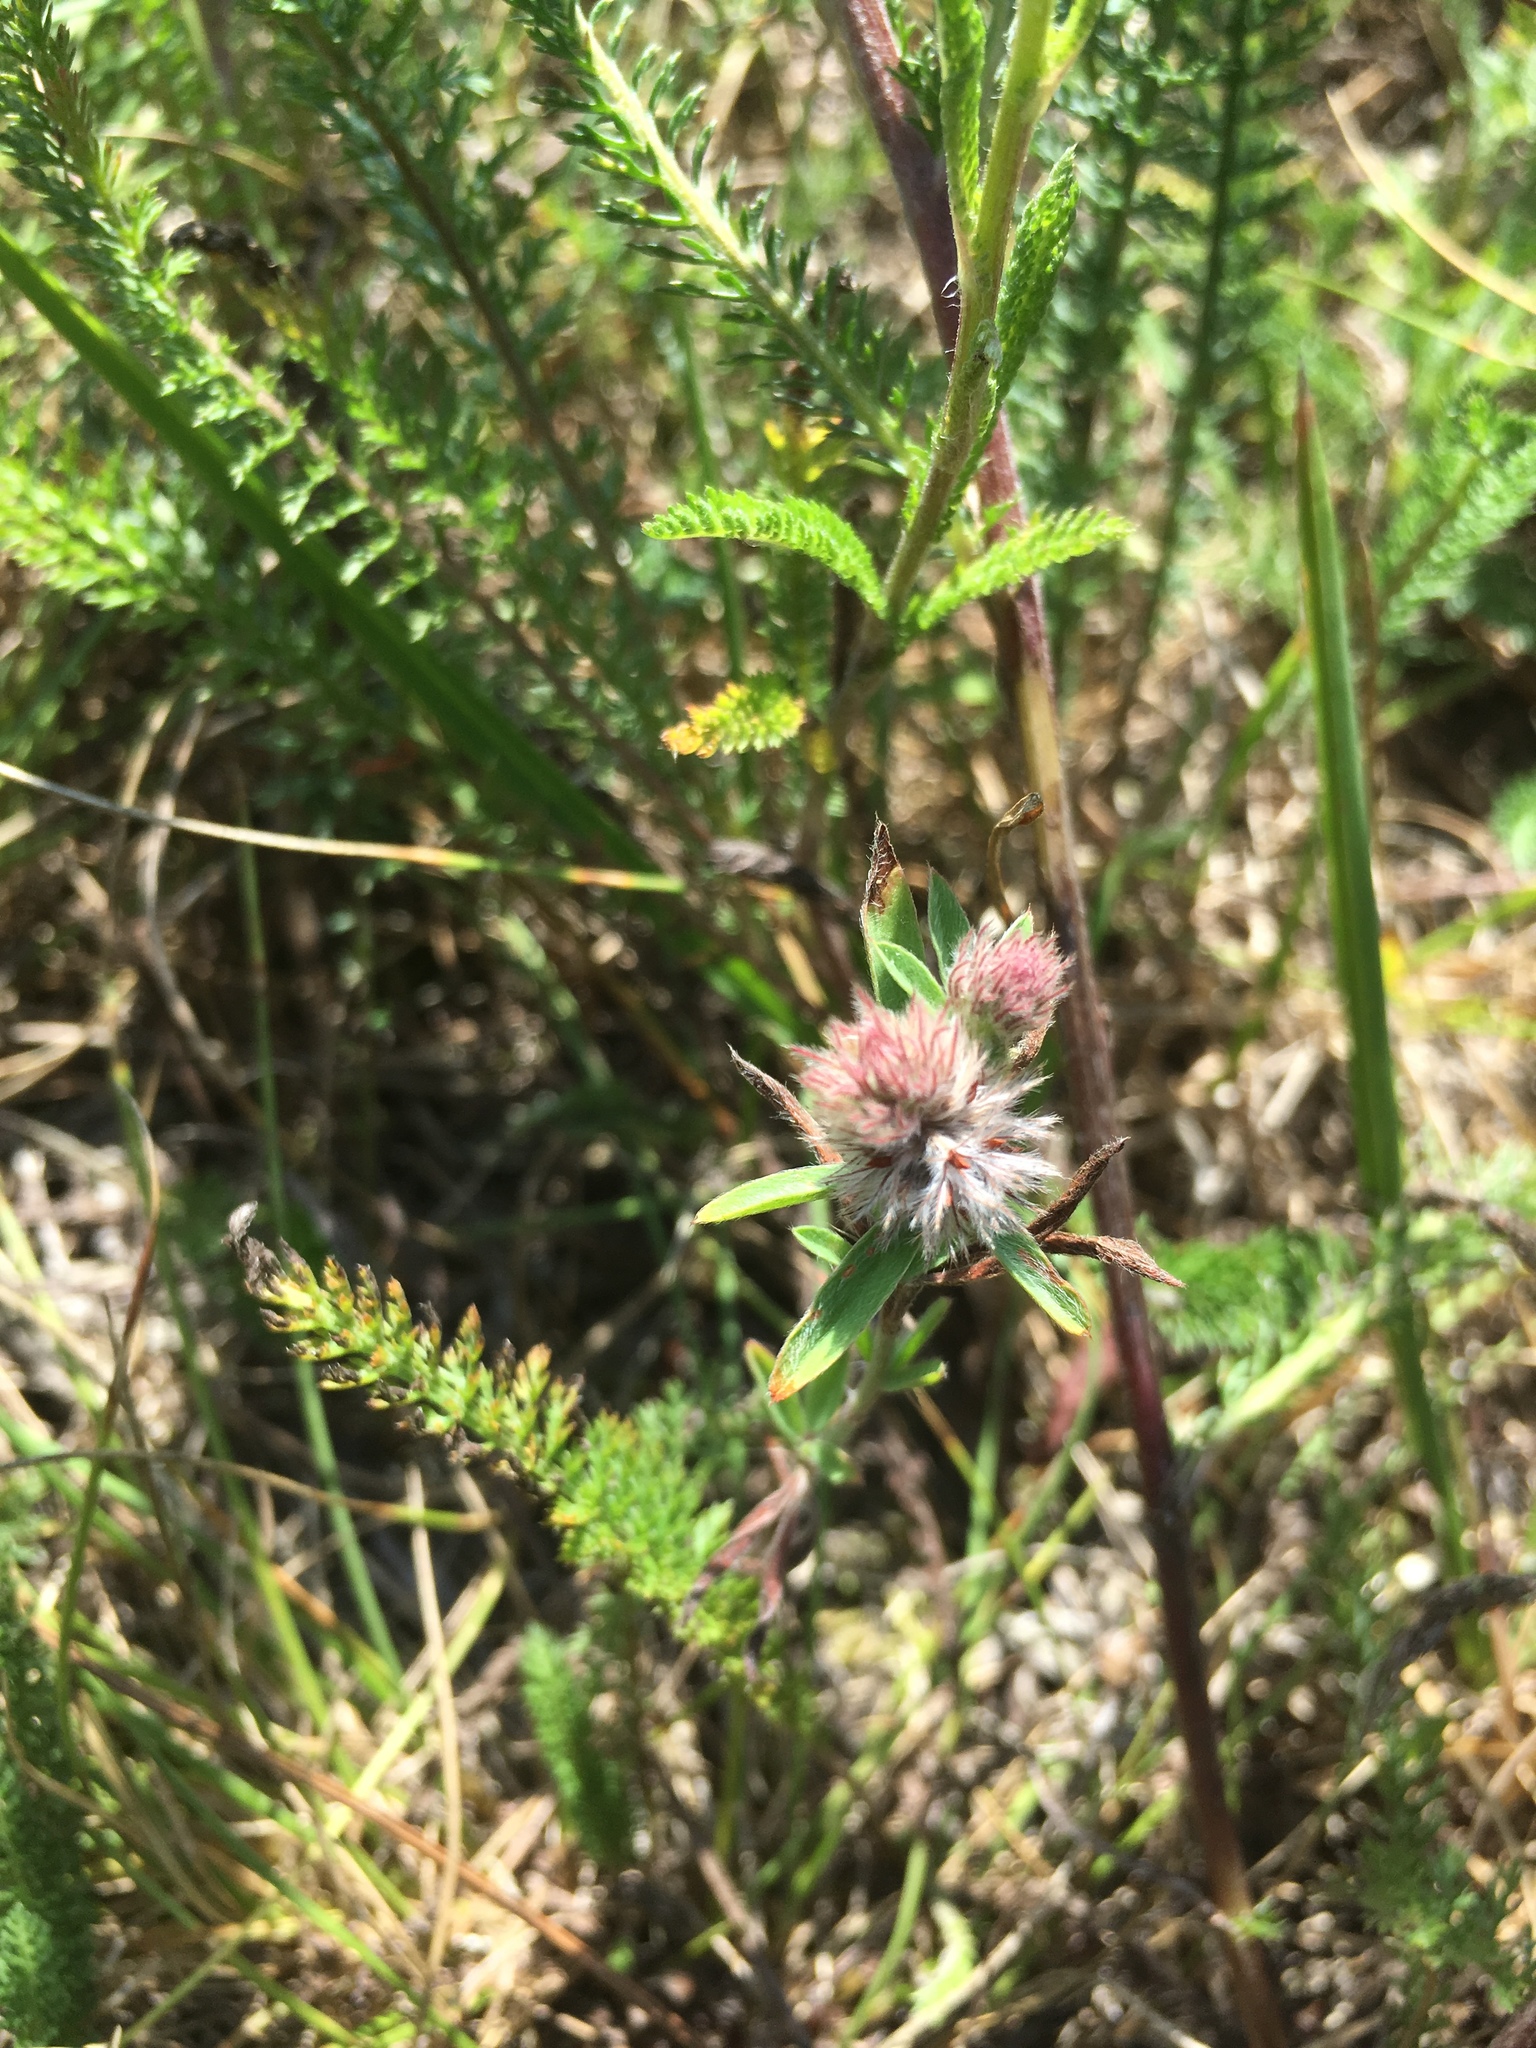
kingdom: Plantae
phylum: Tracheophyta
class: Magnoliopsida
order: Fabales
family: Fabaceae
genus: Trifolium
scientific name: Trifolium arvense
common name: Hare's-foot clover
